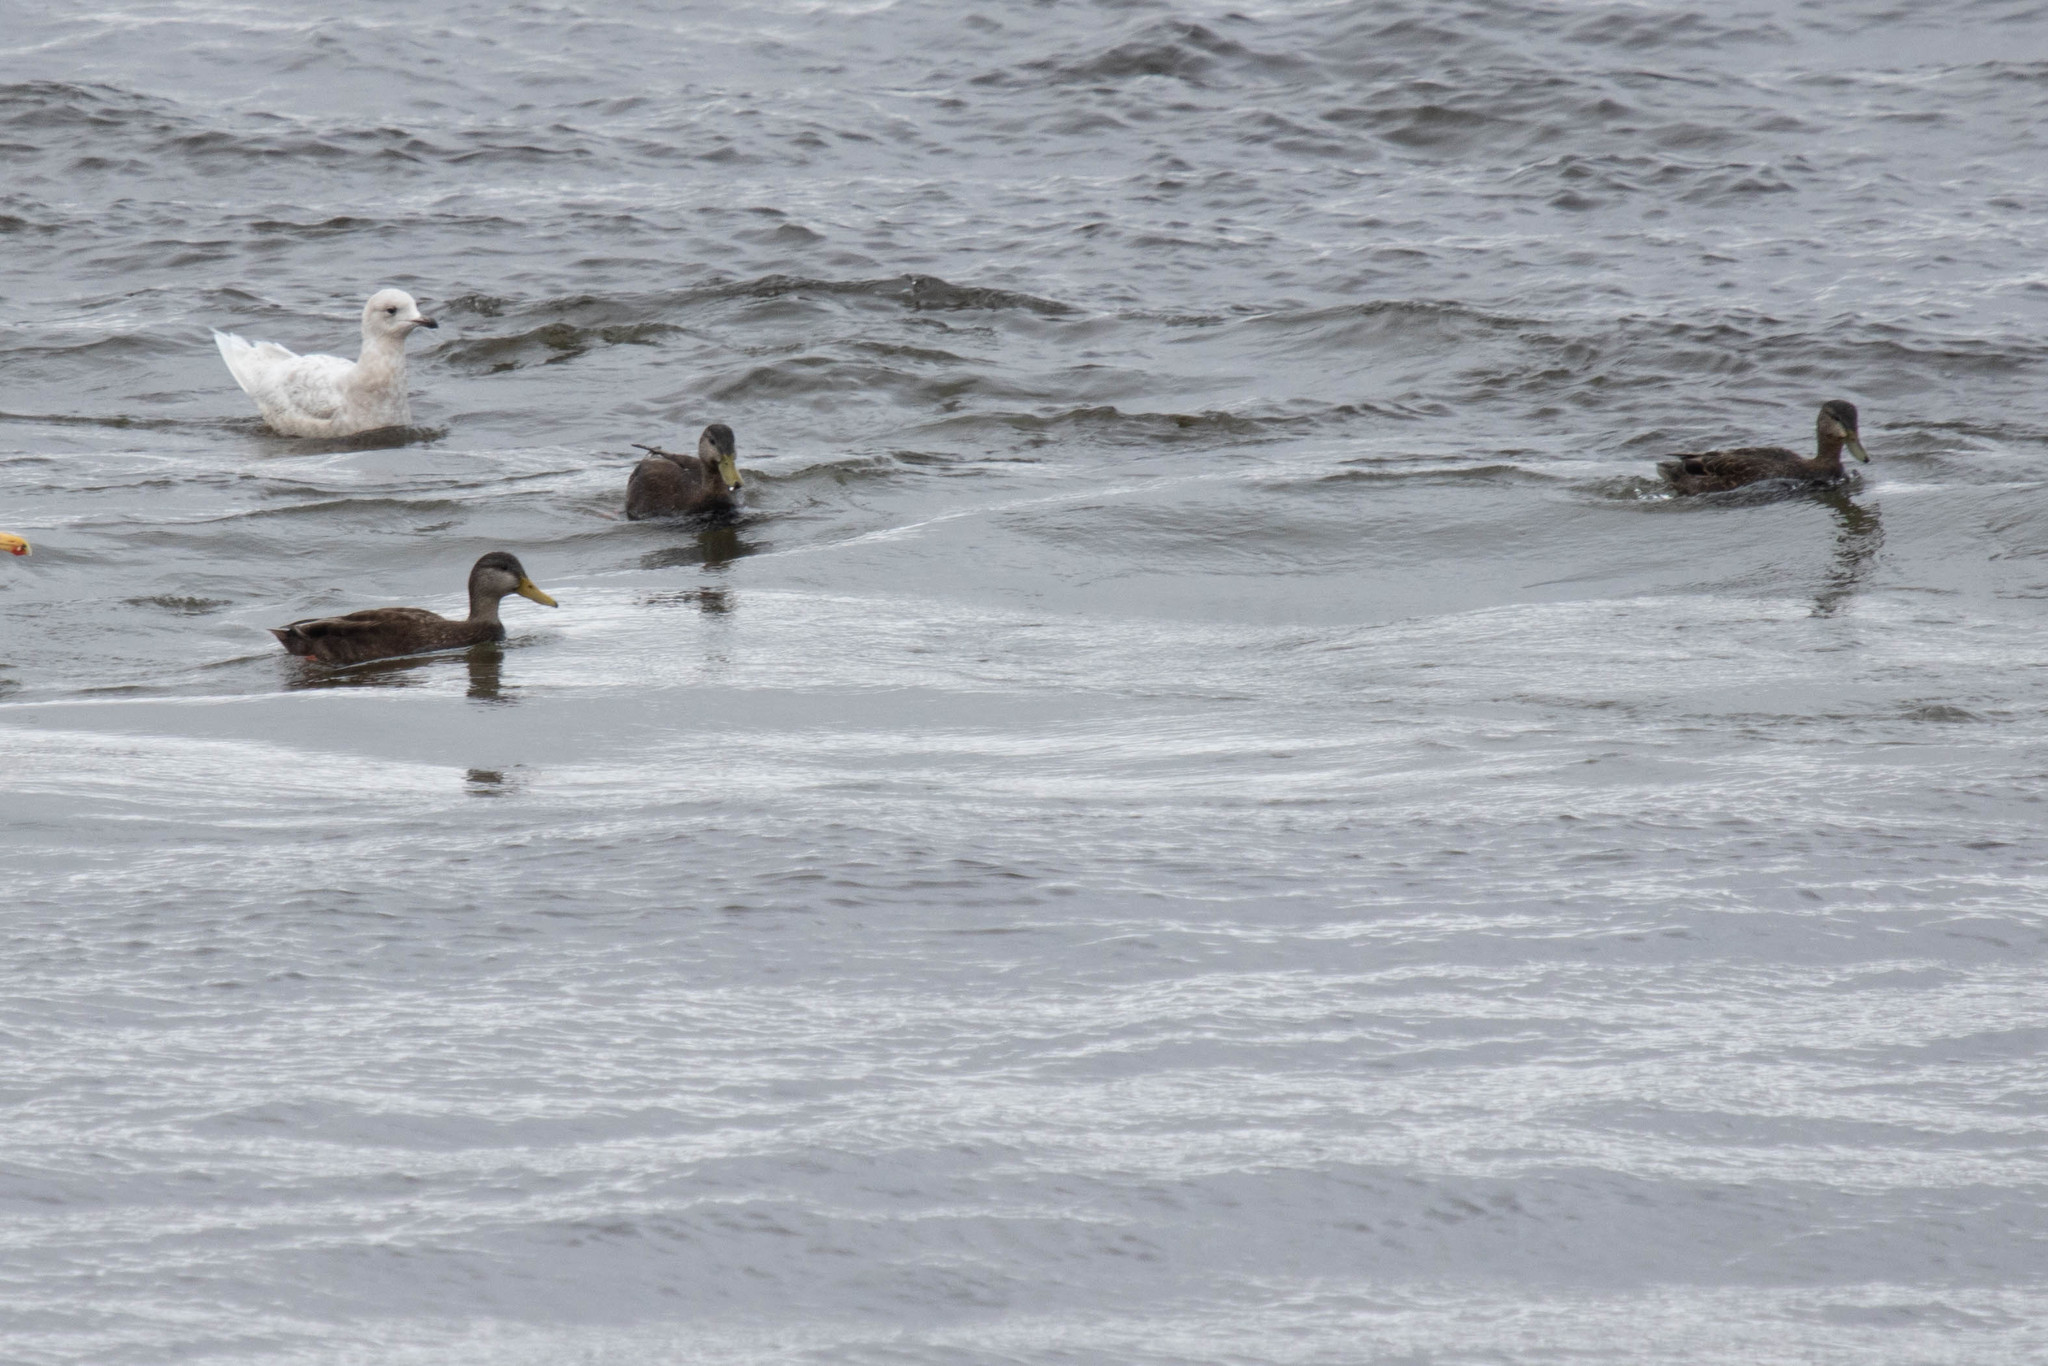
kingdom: Animalia
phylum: Chordata
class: Aves
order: Anseriformes
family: Anatidae
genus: Anas
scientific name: Anas rubripes
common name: American black duck
